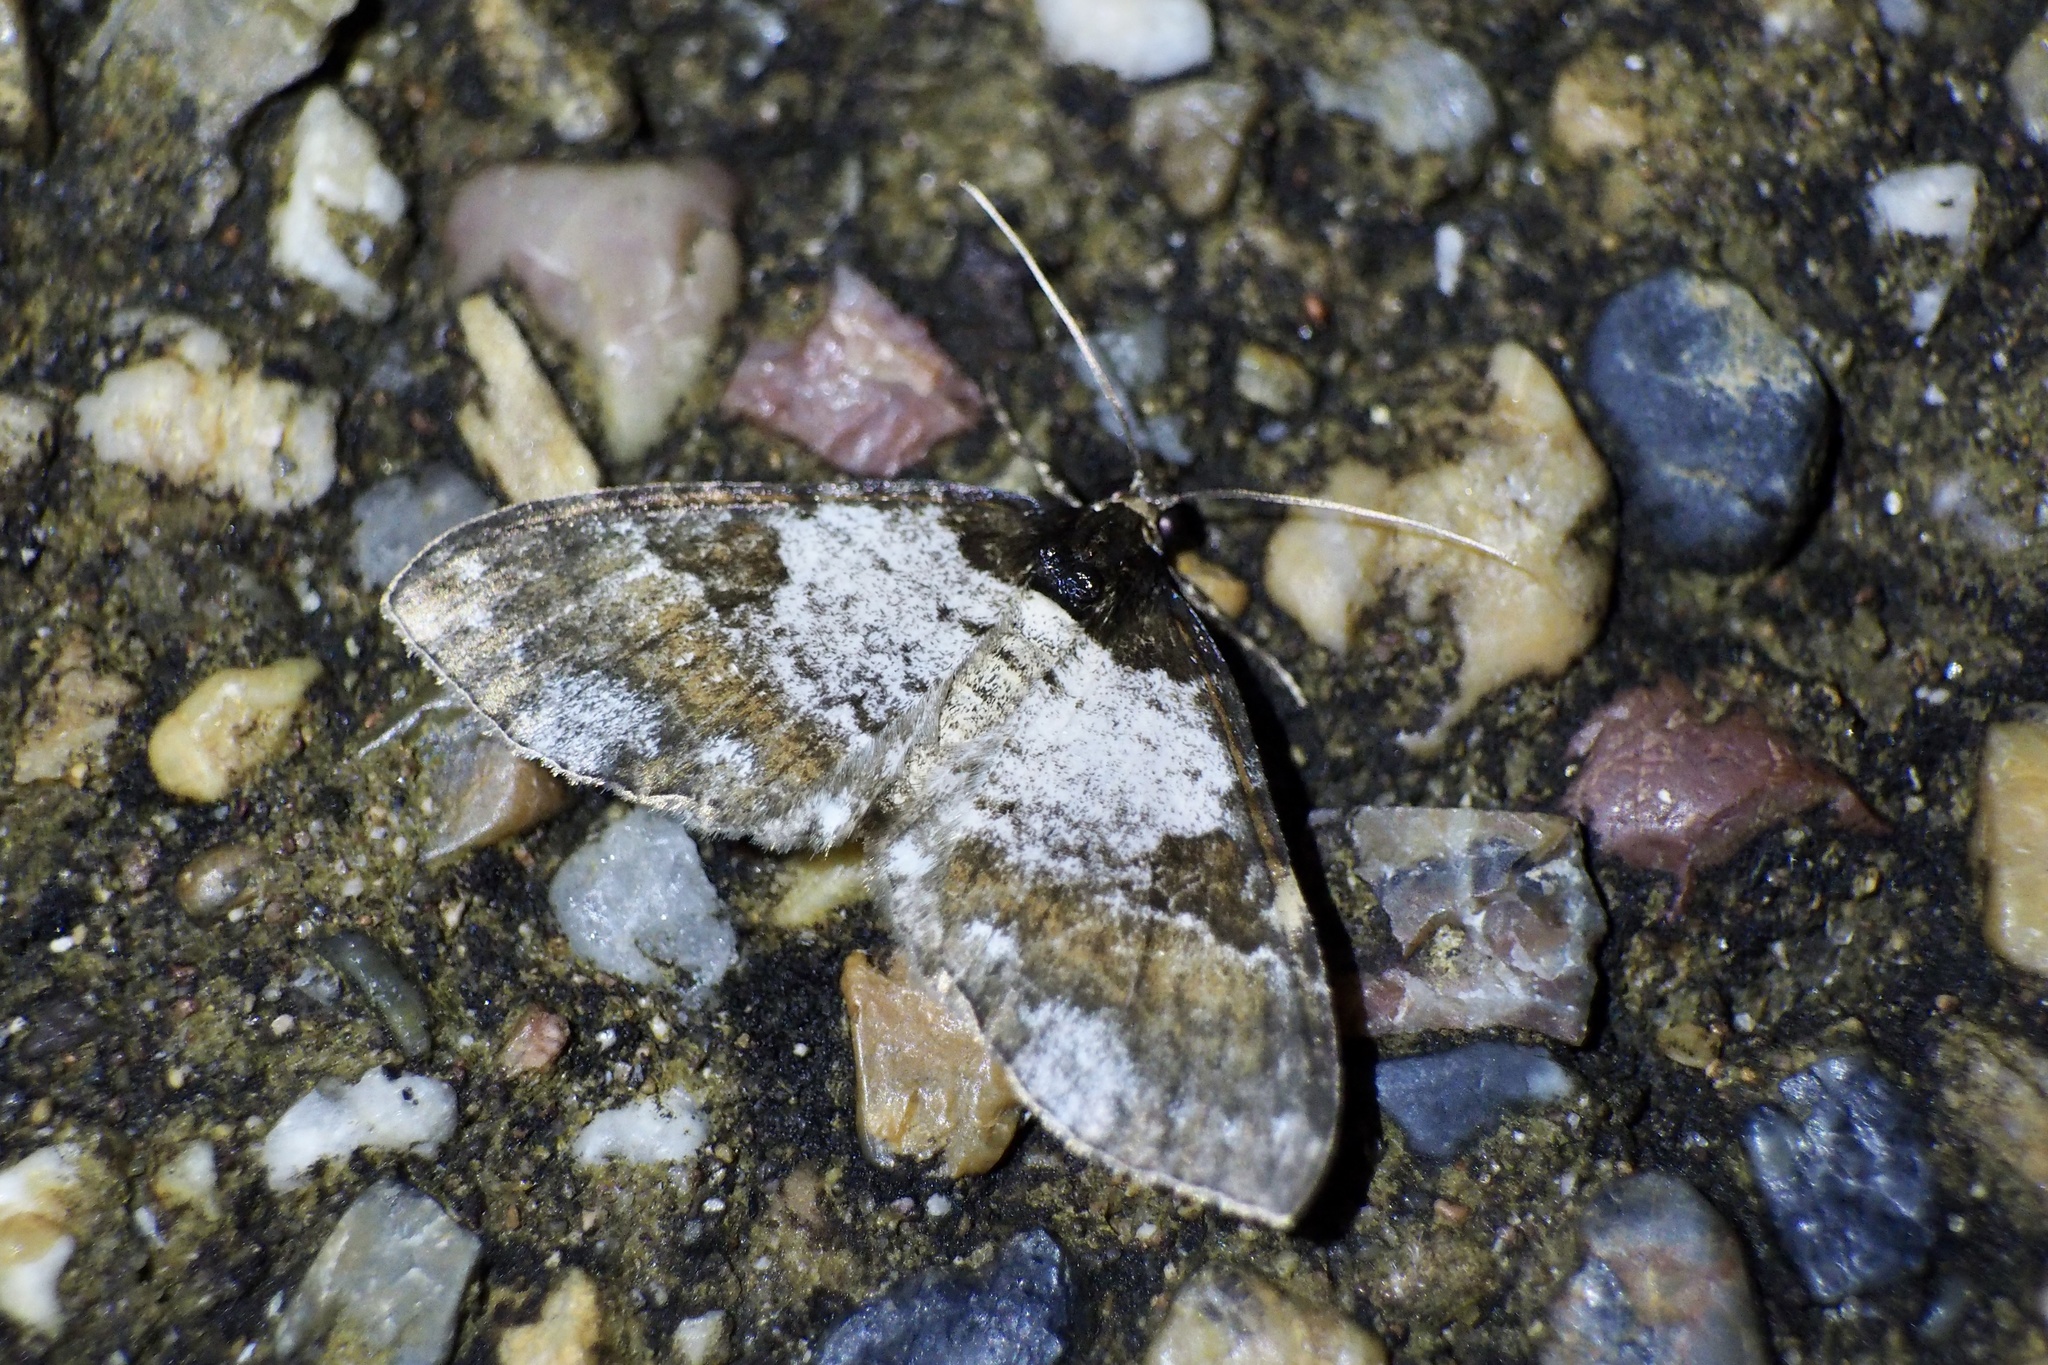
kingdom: Animalia
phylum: Arthropoda
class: Insecta
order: Lepidoptera
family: Geometridae
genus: Melanthia
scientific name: Melanthia procellata
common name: Pretty chalk carpet
